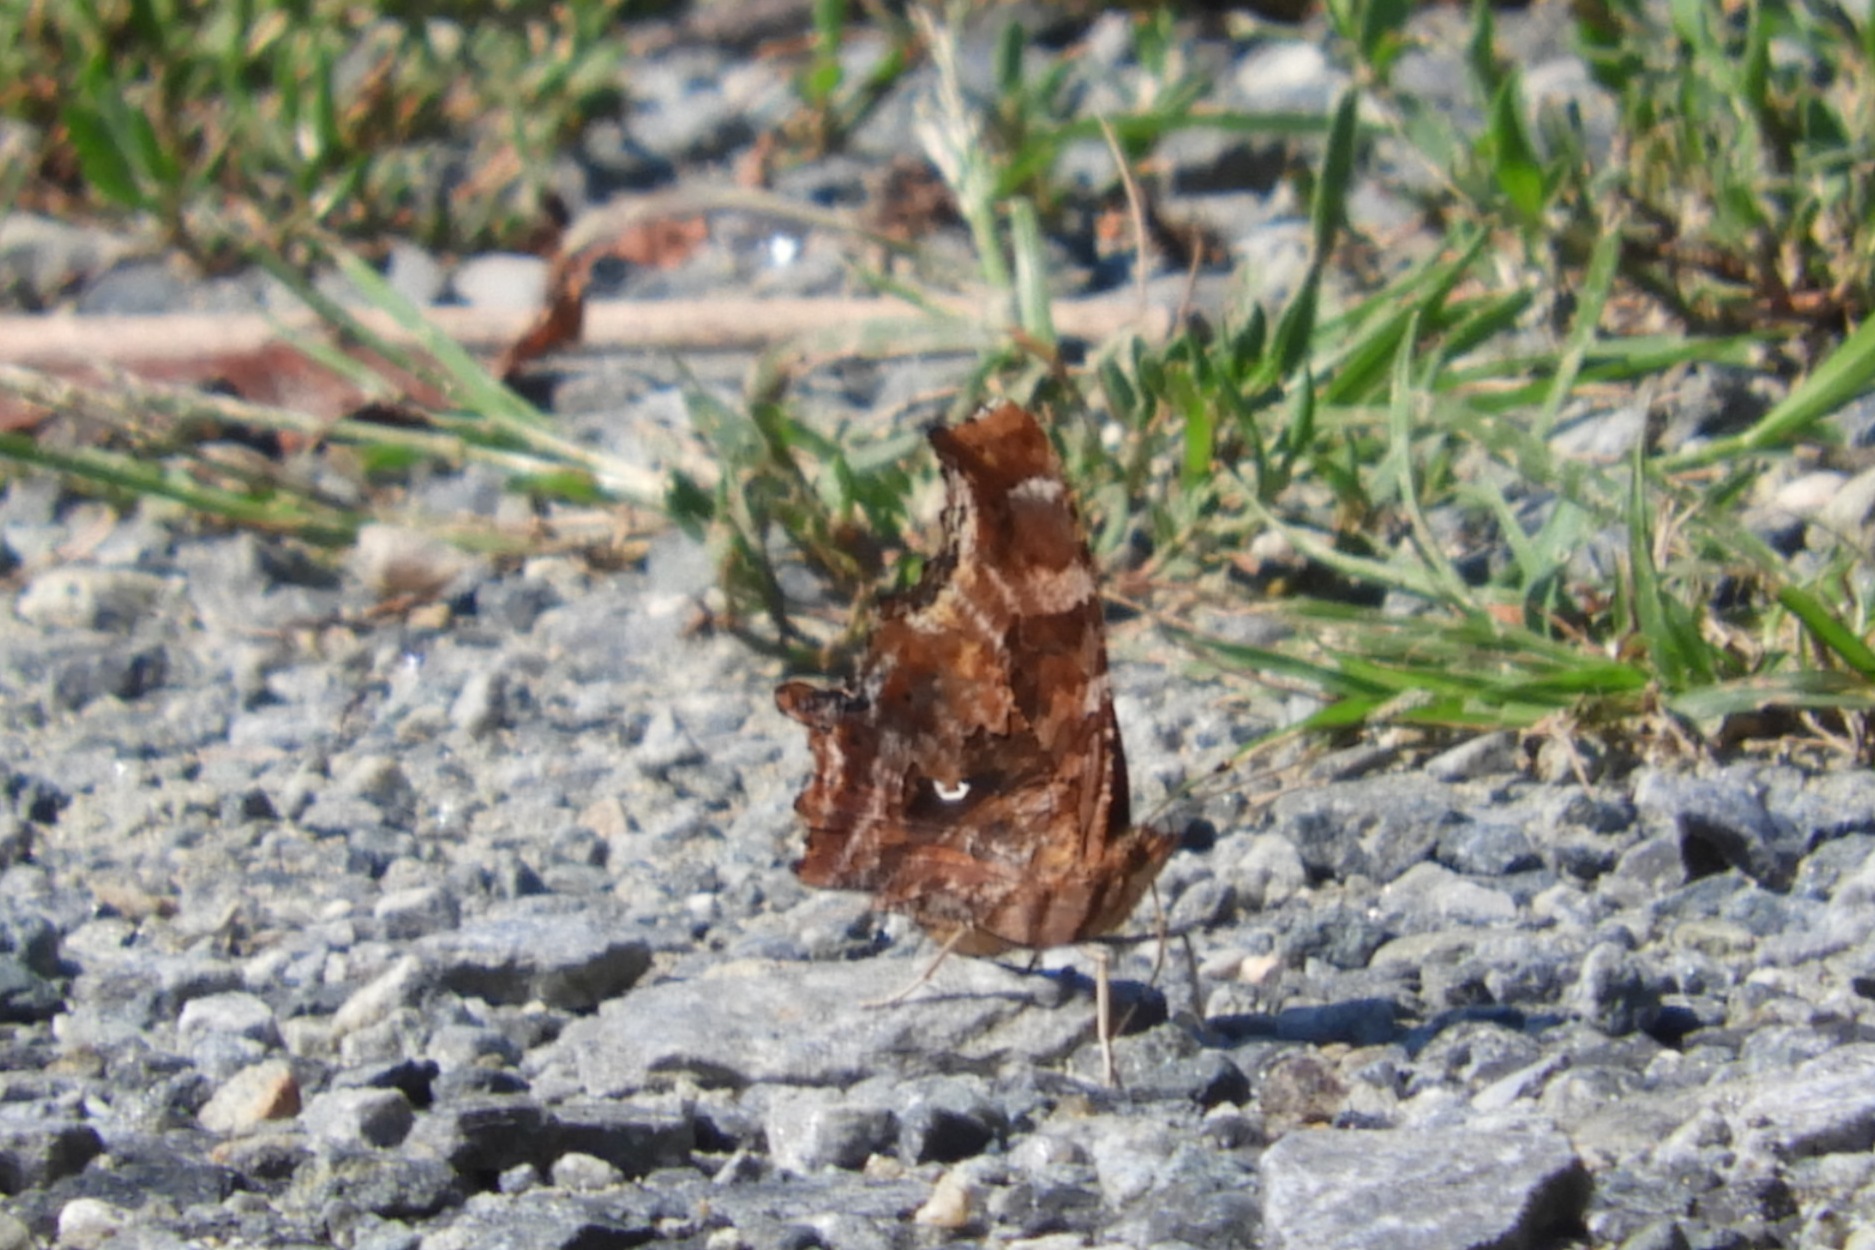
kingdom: Animalia
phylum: Arthropoda
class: Insecta
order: Lepidoptera
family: Nymphalidae
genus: Polygonia
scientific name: Polygonia comma
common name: Eastern comma
